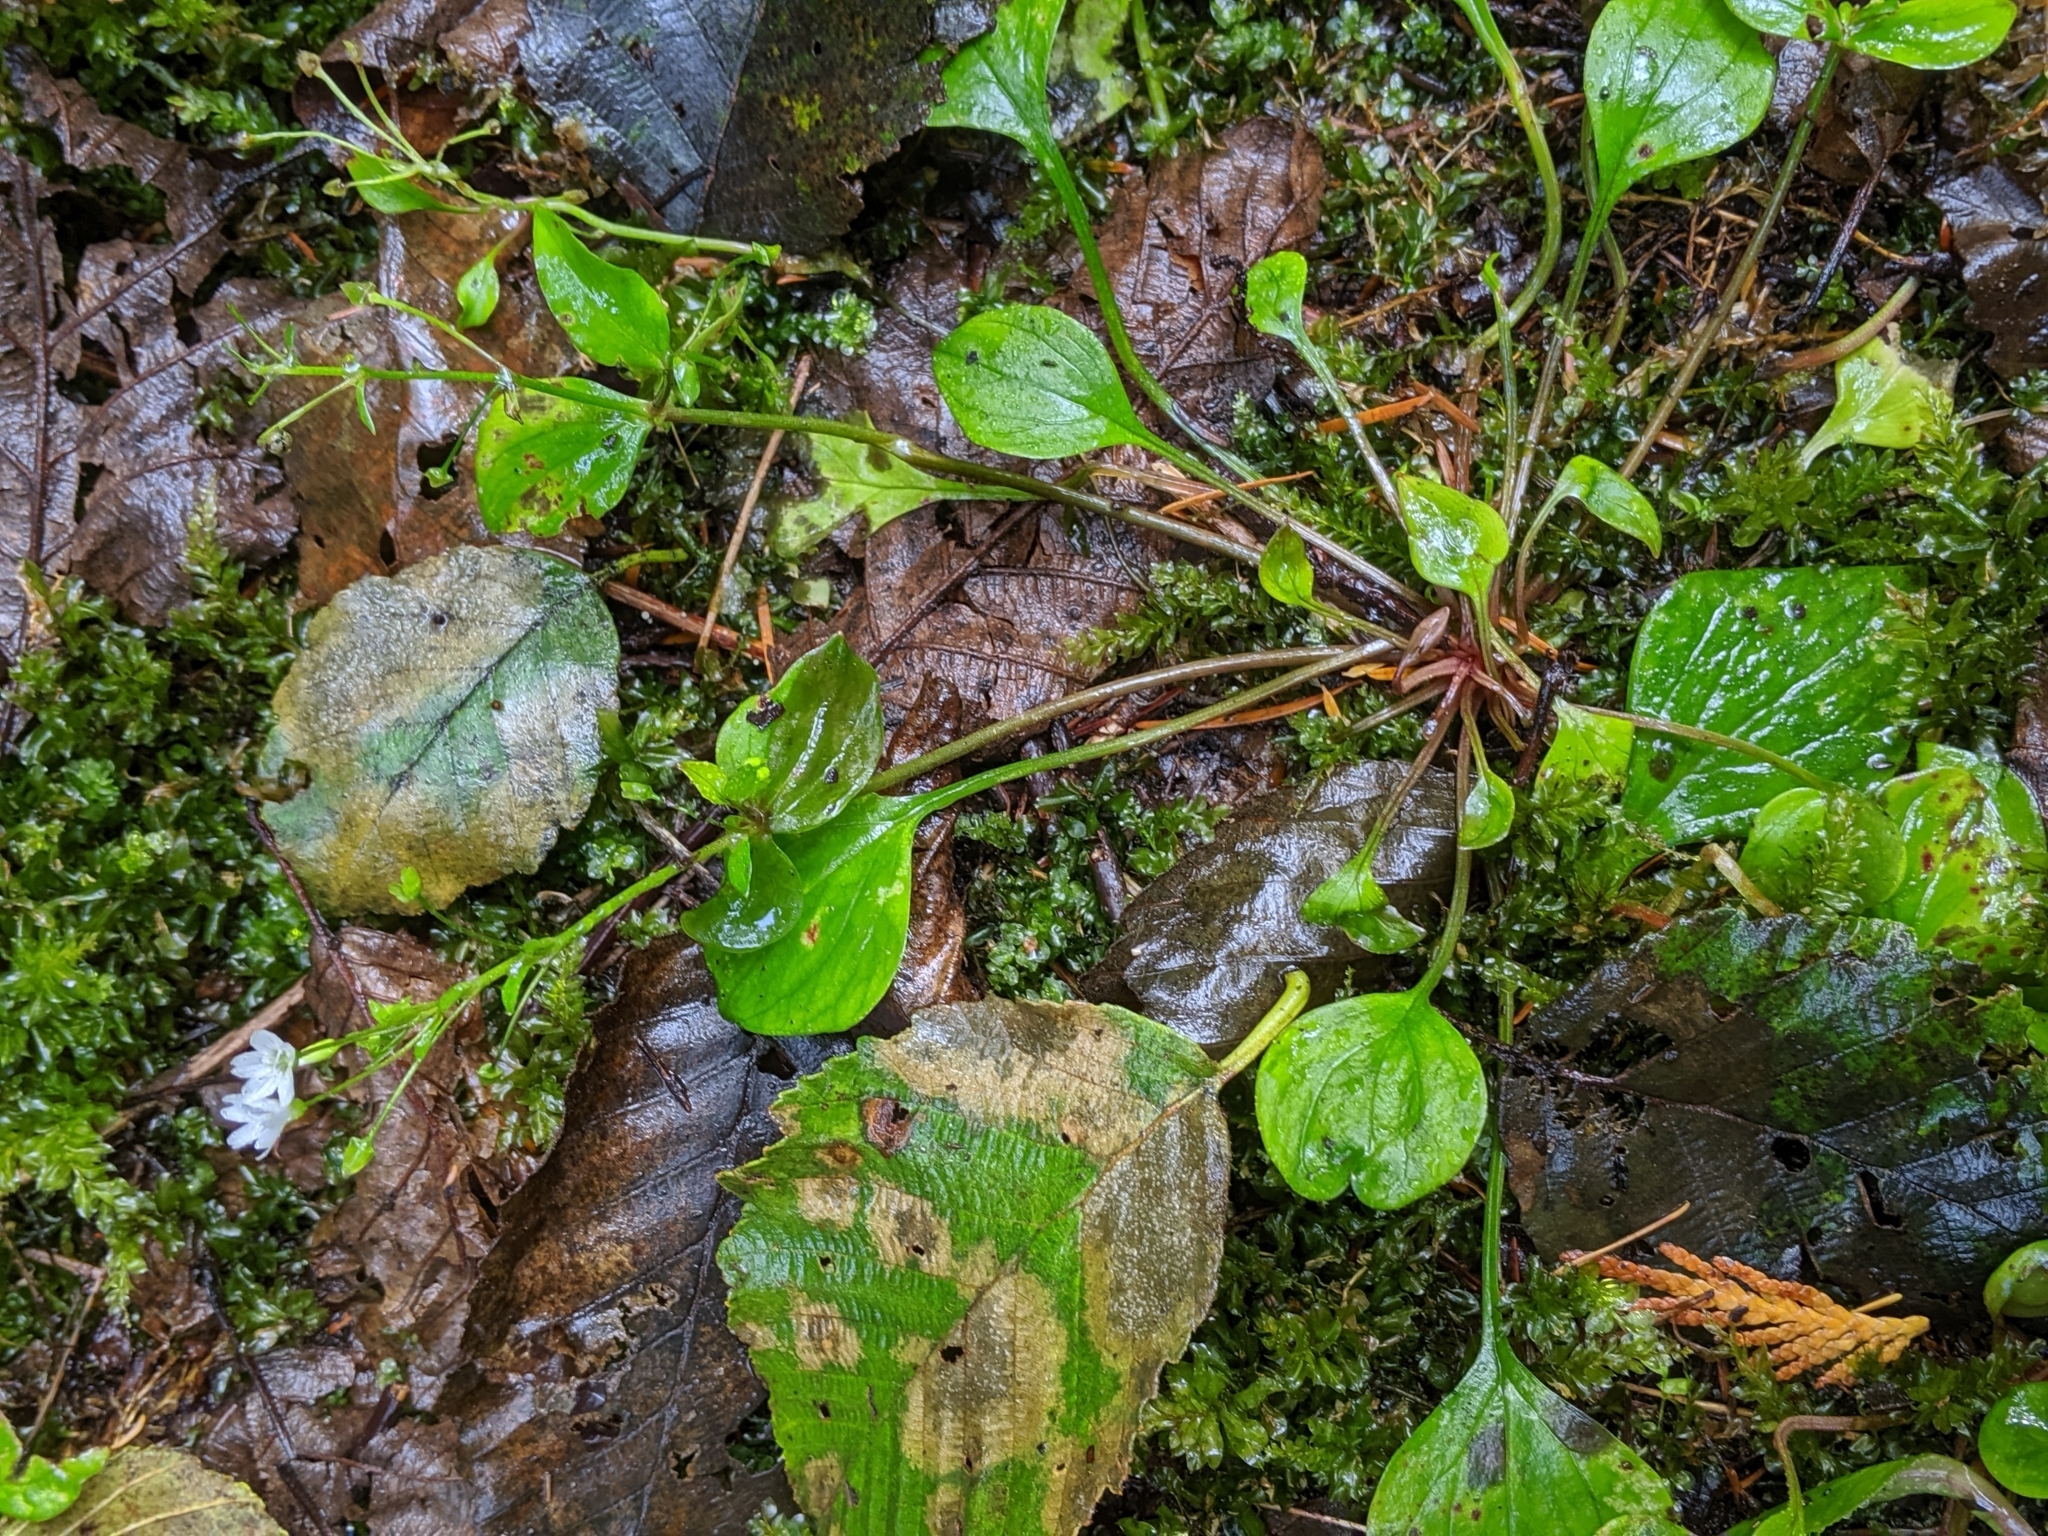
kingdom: Plantae
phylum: Tracheophyta
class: Magnoliopsida
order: Caryophyllales
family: Montiaceae
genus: Claytonia
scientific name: Claytonia sibirica
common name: Pink purslane
